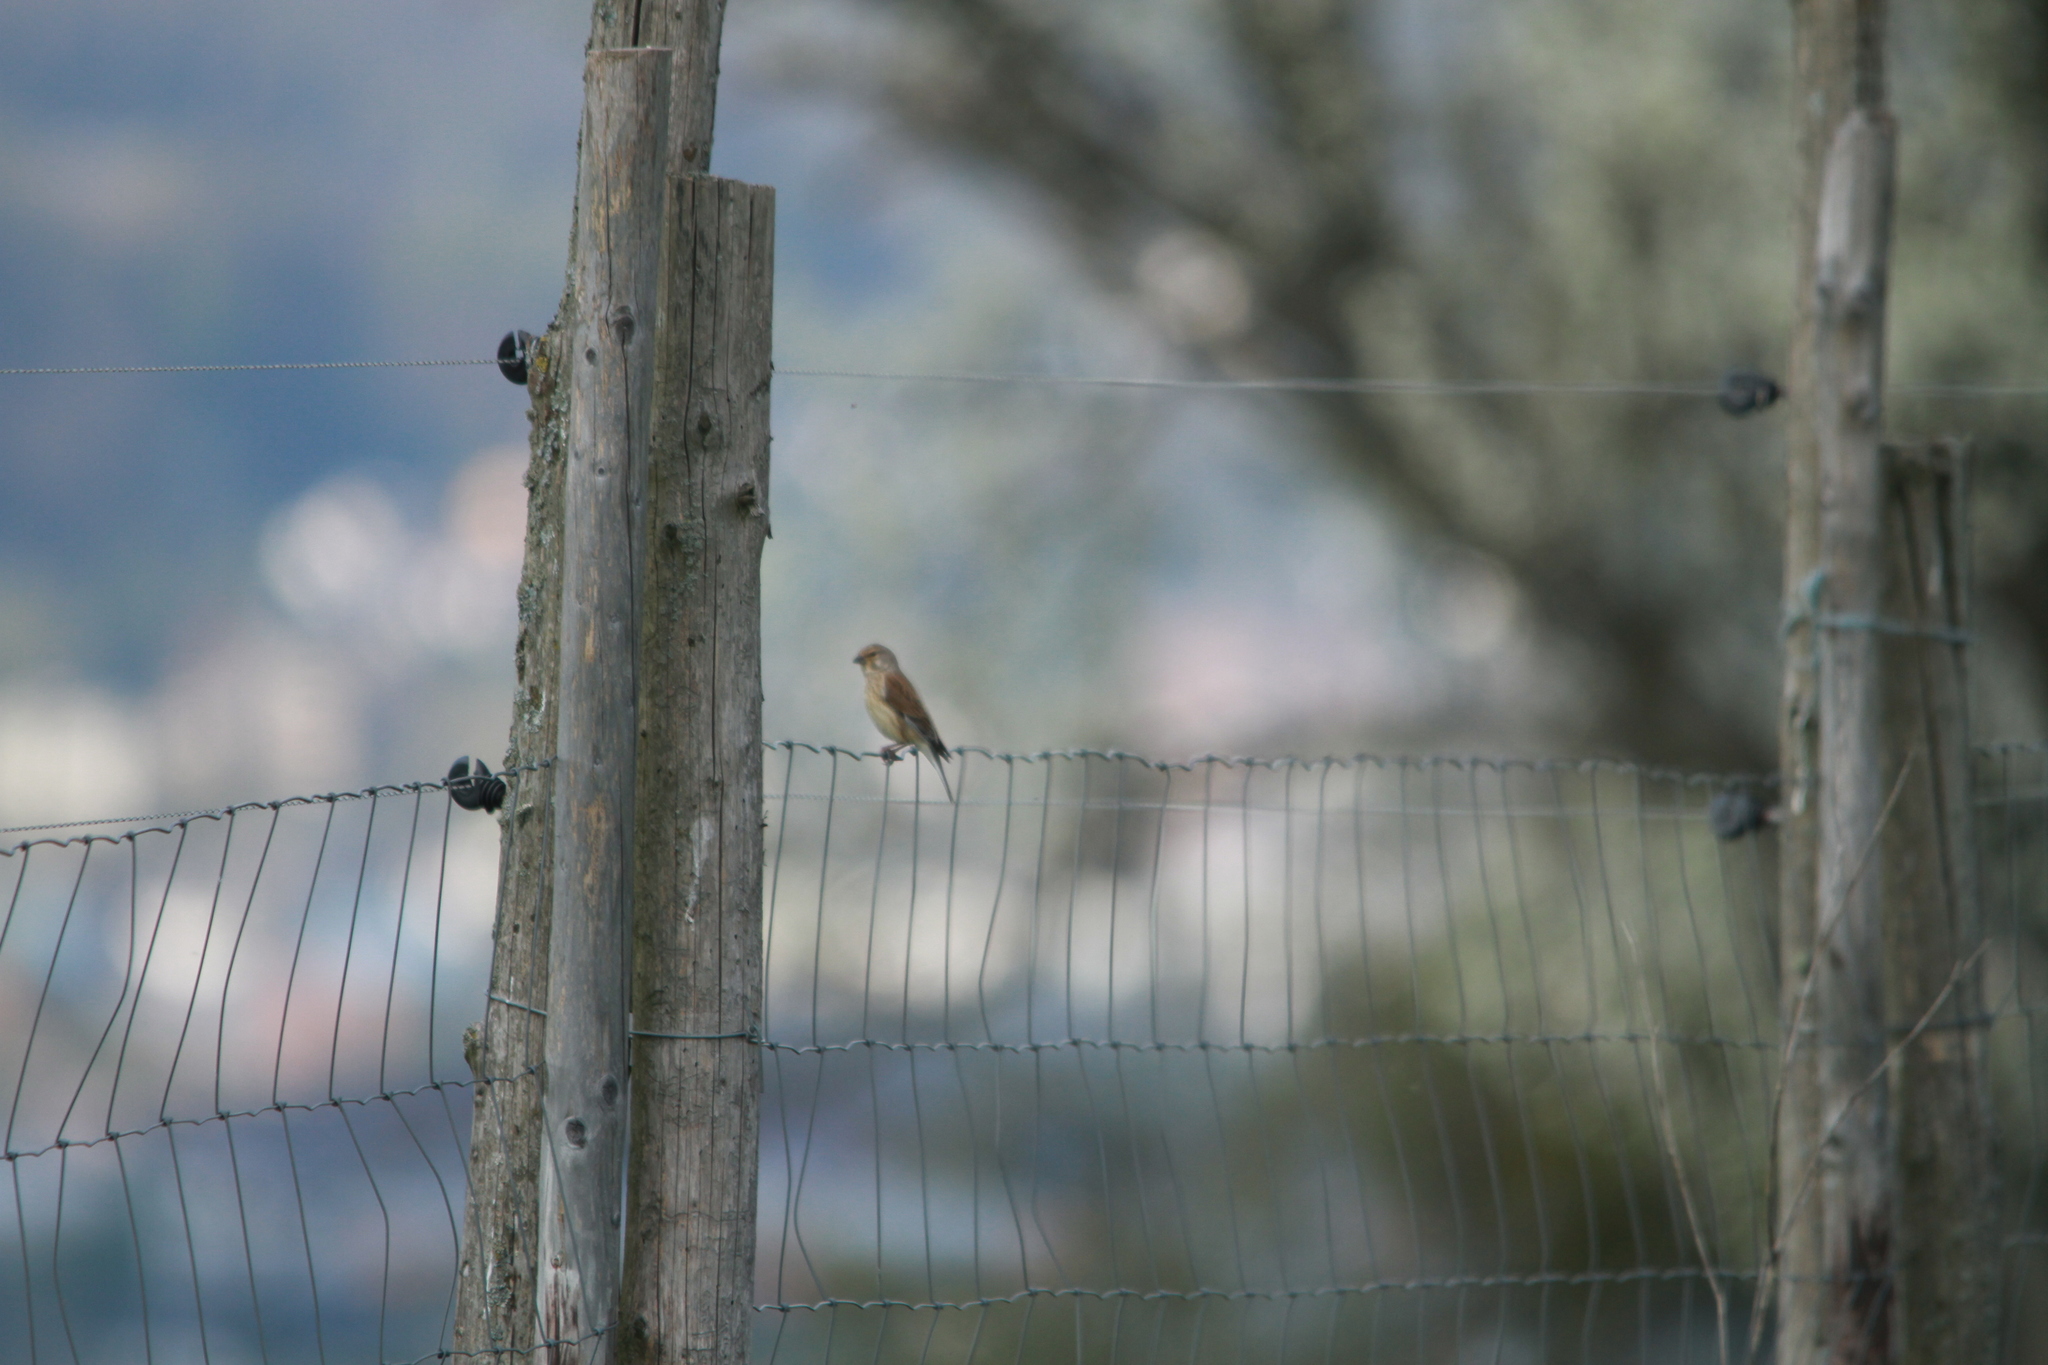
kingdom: Animalia
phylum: Chordata
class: Aves
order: Passeriformes
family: Fringillidae
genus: Linaria
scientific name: Linaria cannabina
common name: Common linnet
